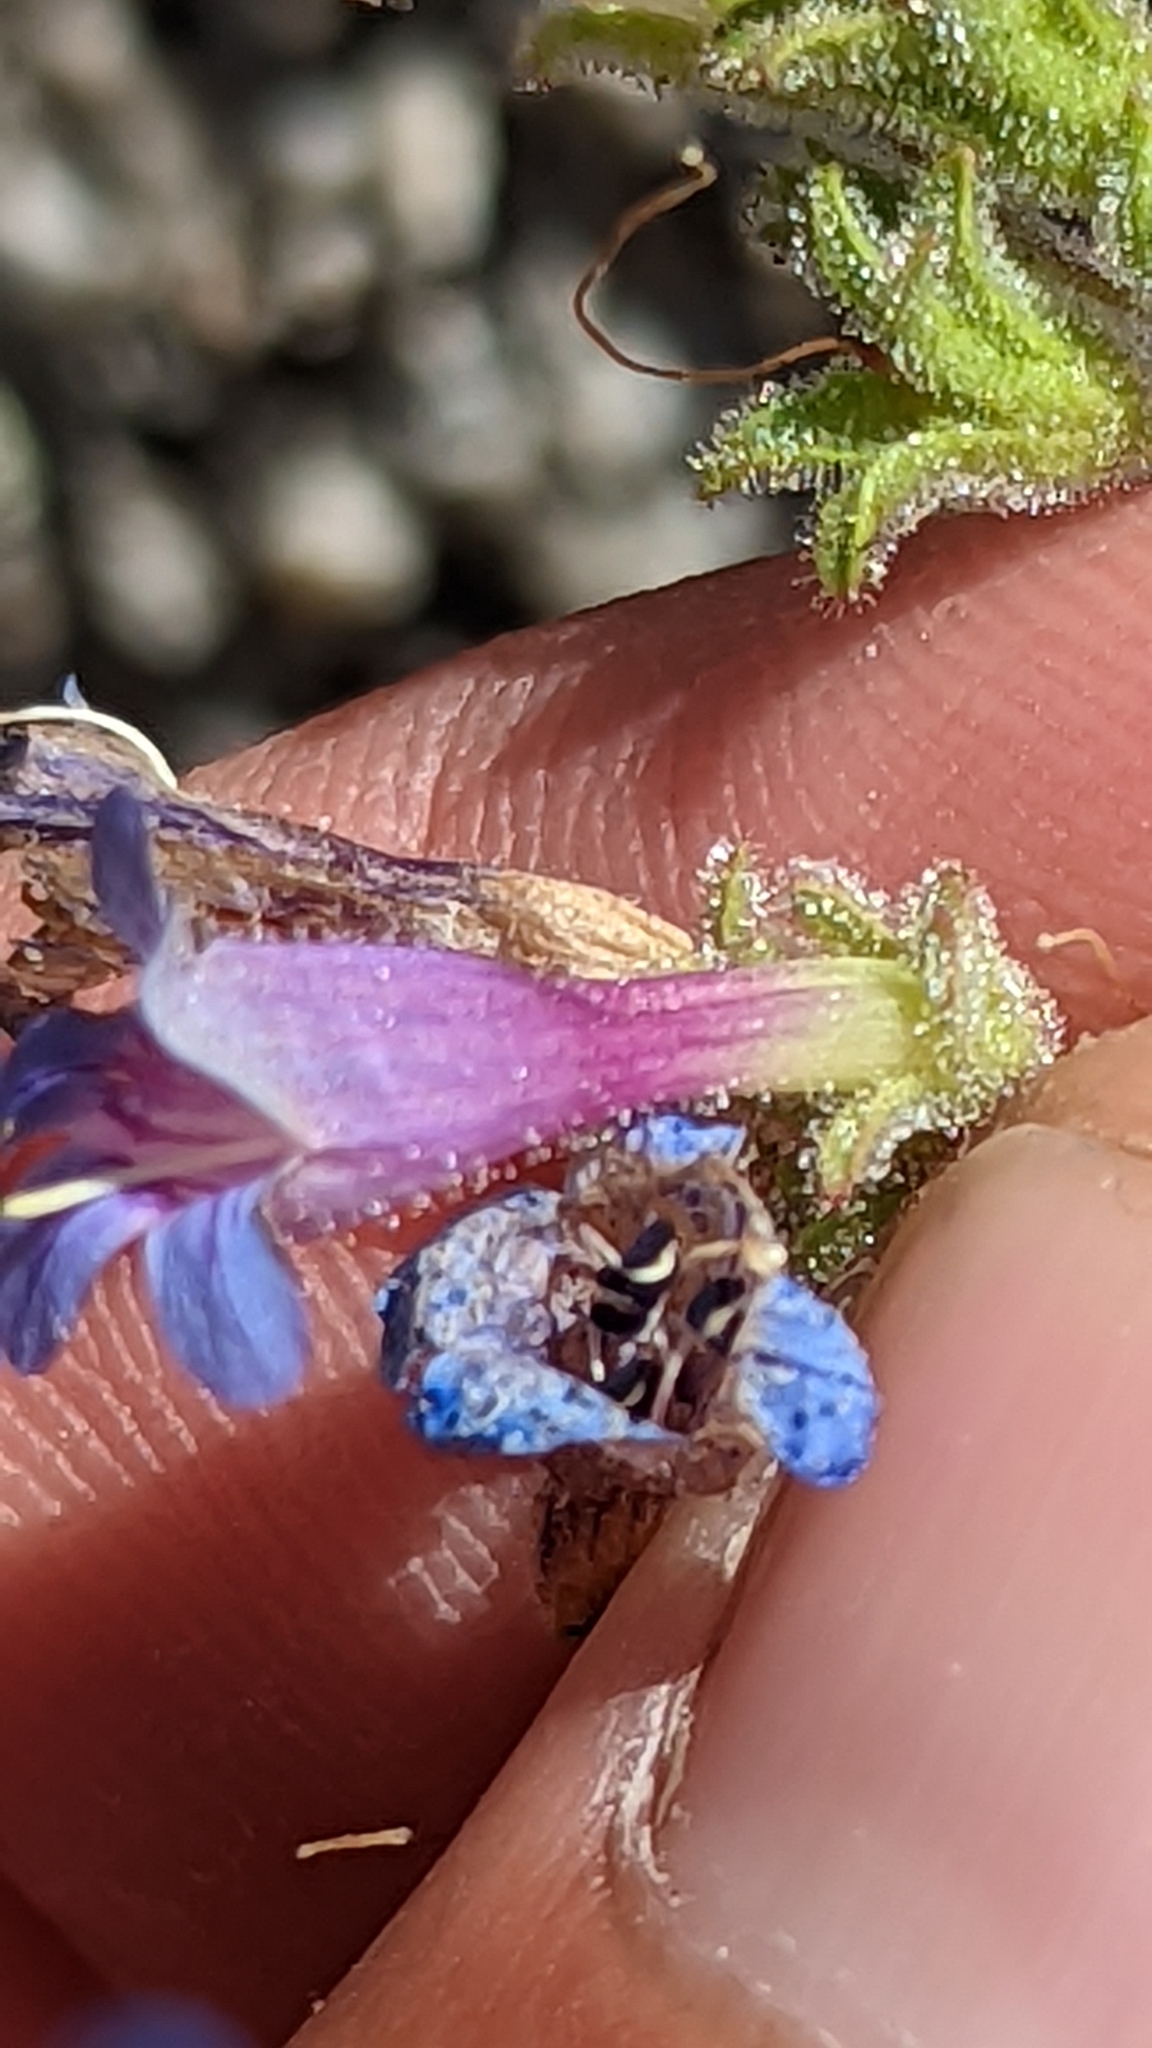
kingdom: Plantae
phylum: Tracheophyta
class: Magnoliopsida
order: Lamiales
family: Plantaginaceae
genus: Penstemon
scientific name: Penstemon diphyllus
